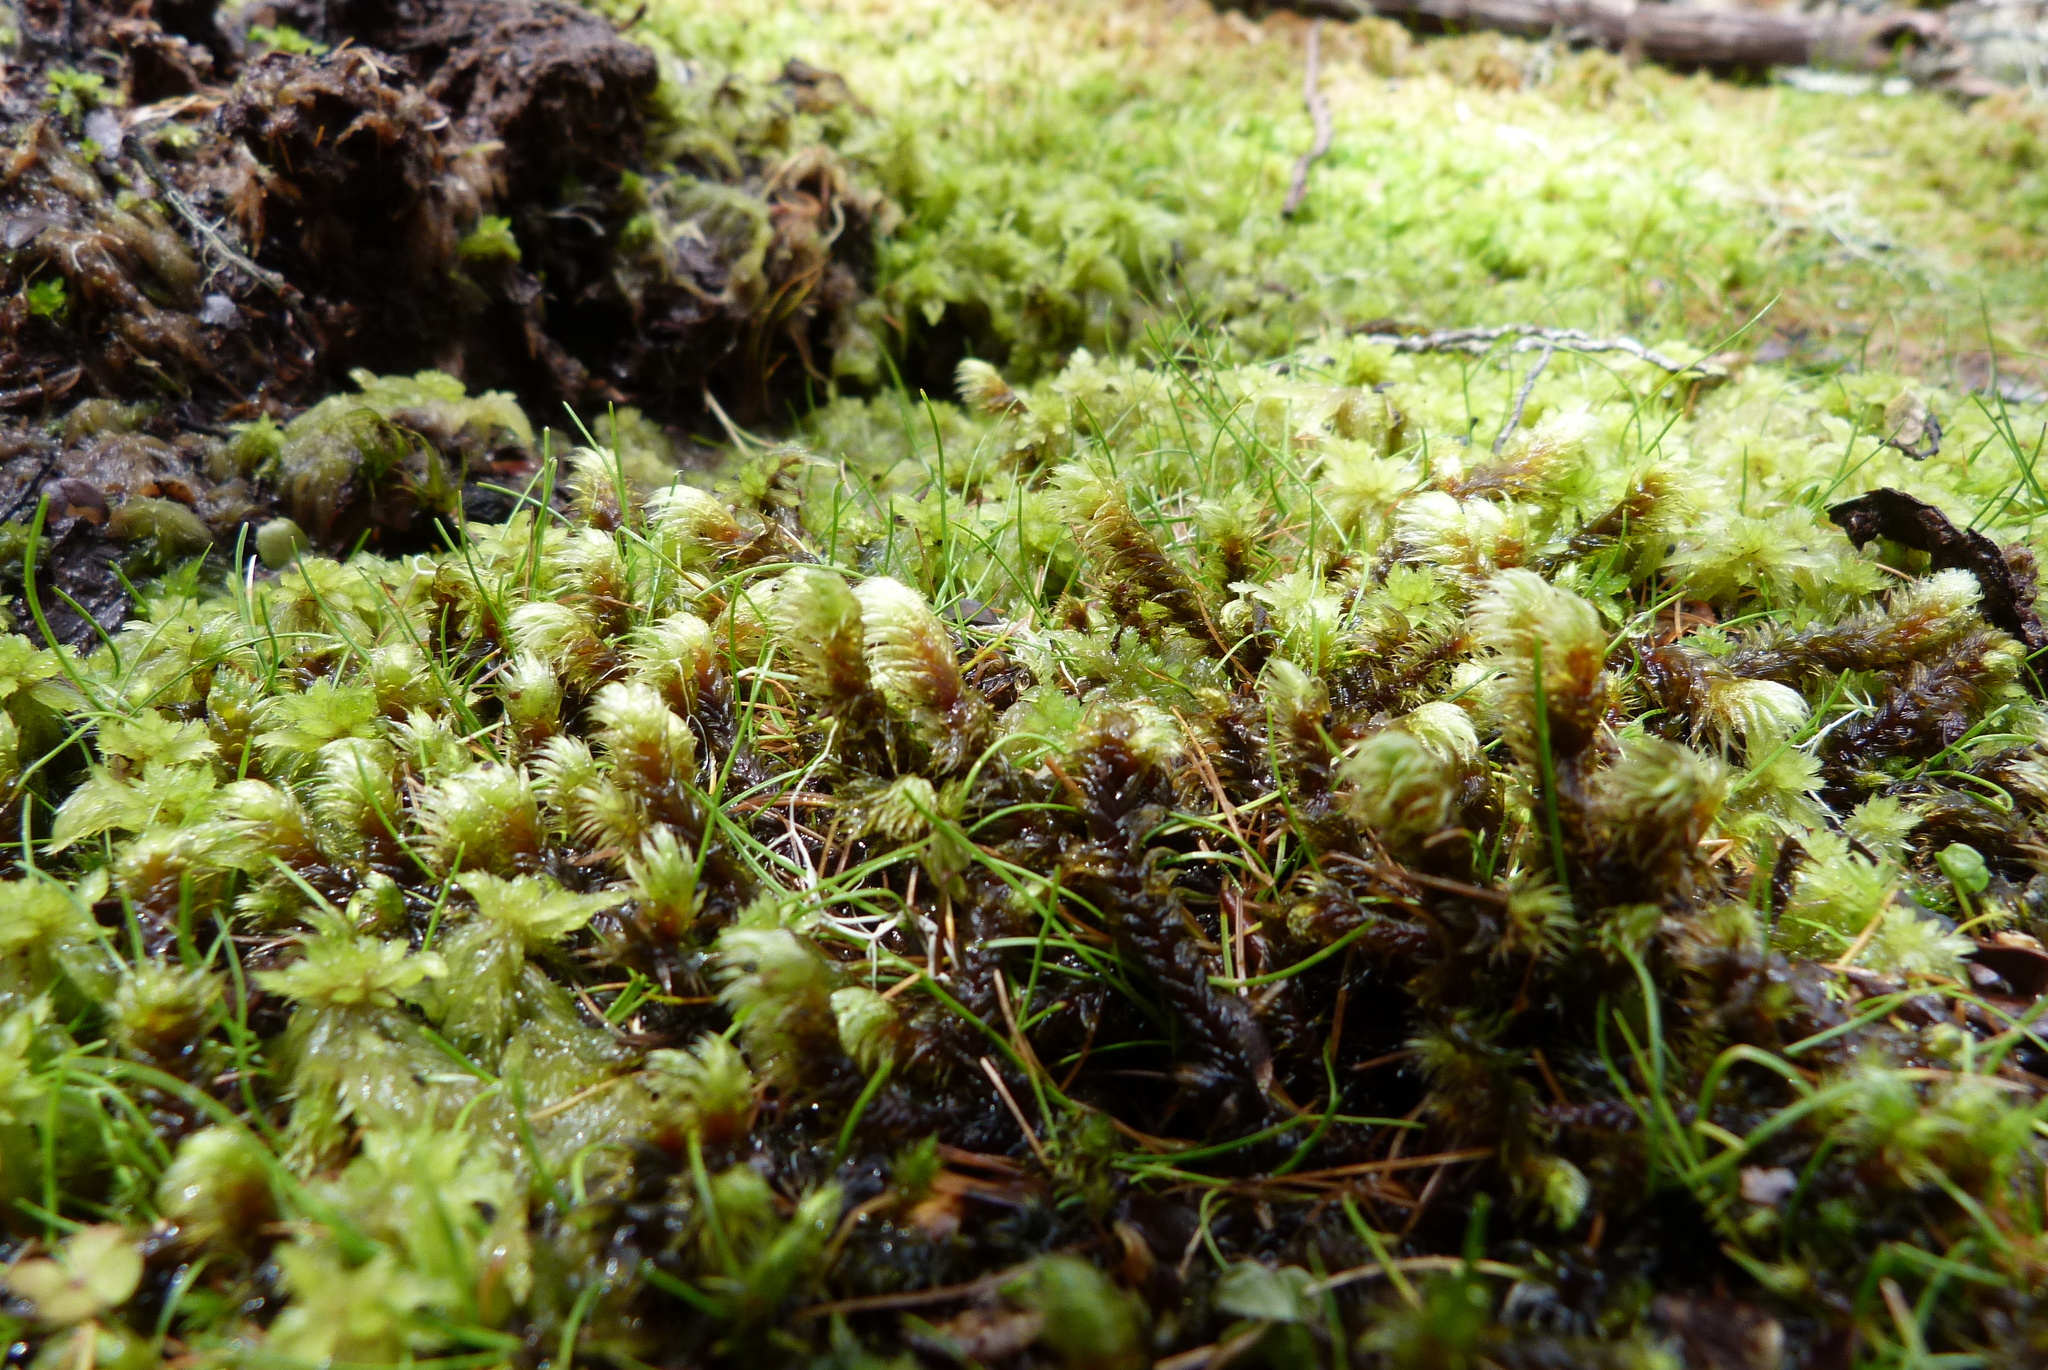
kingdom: Plantae
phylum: Bryophyta
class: Bryopsida
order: Bartramiales
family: Bartramiaceae
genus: Breutelia
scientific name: Breutelia elongata
